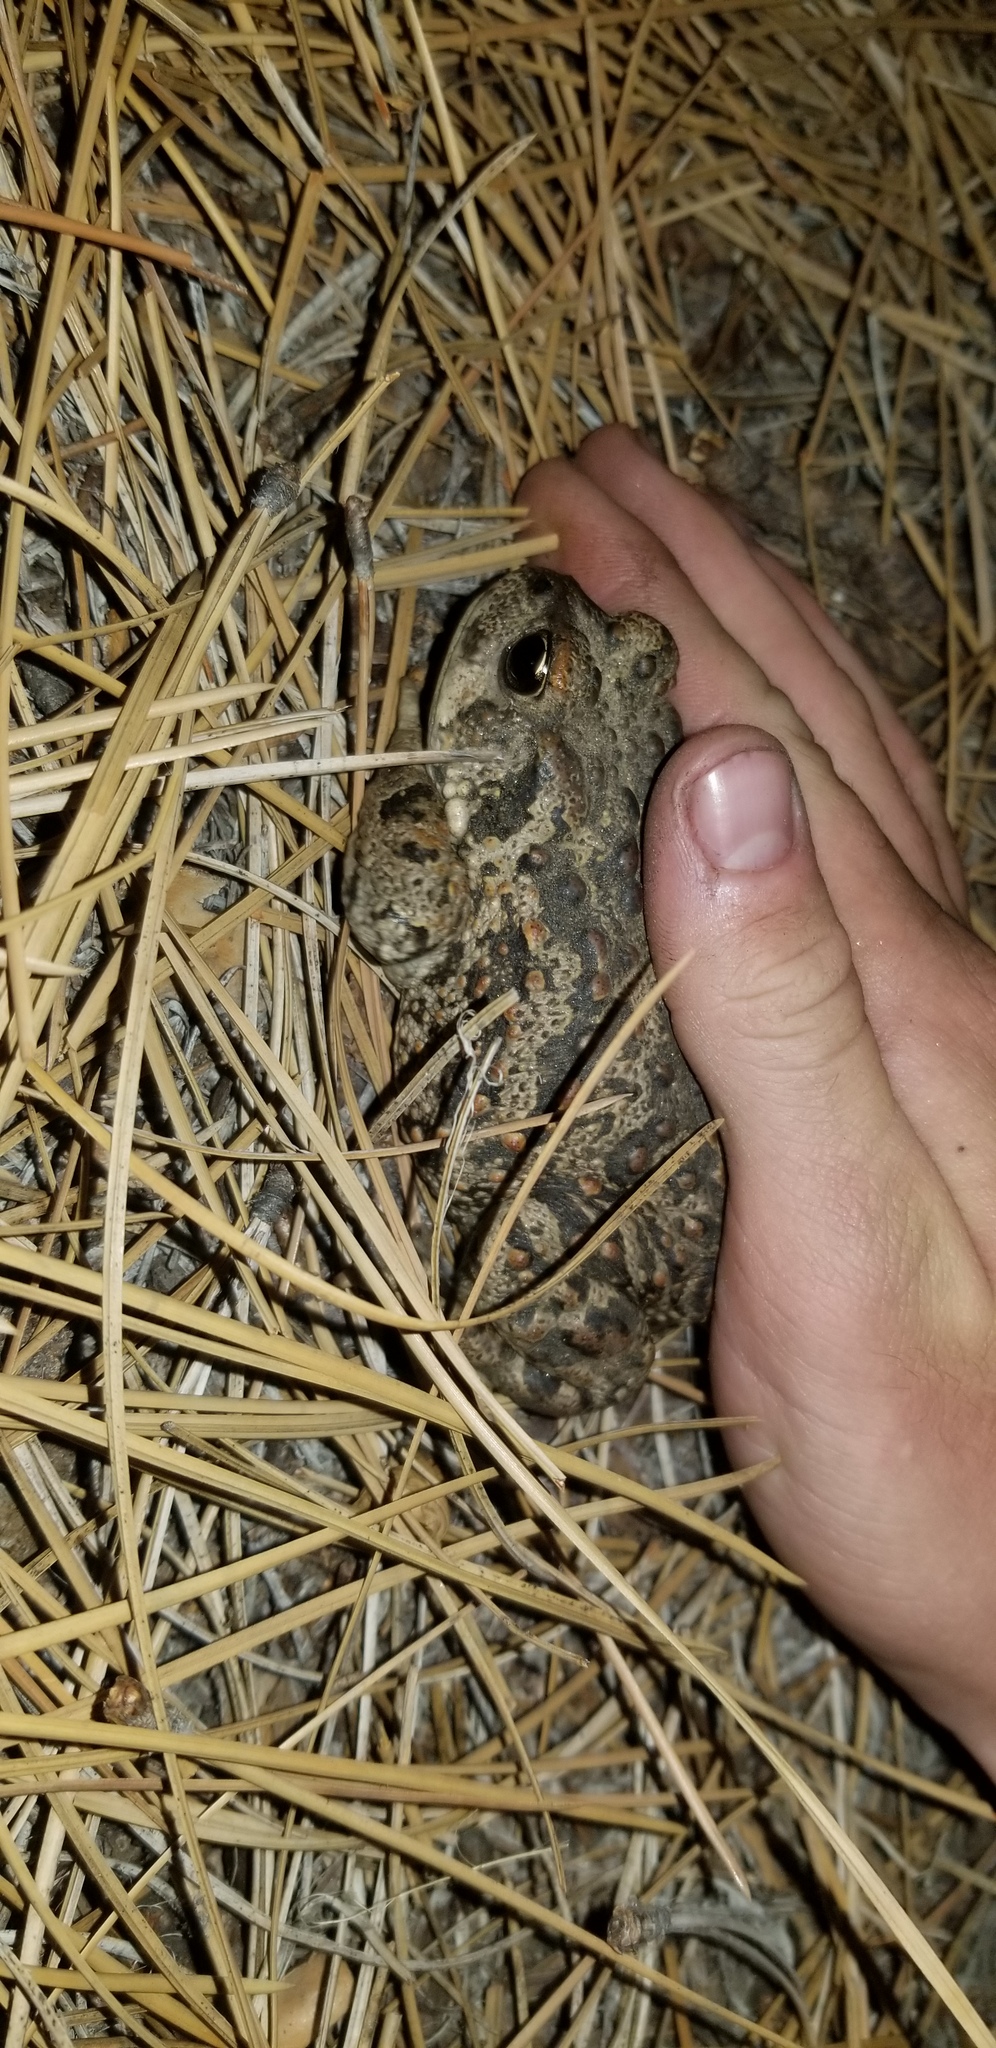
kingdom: Animalia
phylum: Chordata
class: Amphibia
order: Anura
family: Bufonidae
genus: Anaxyrus
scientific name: Anaxyrus boreas
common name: Western toad
